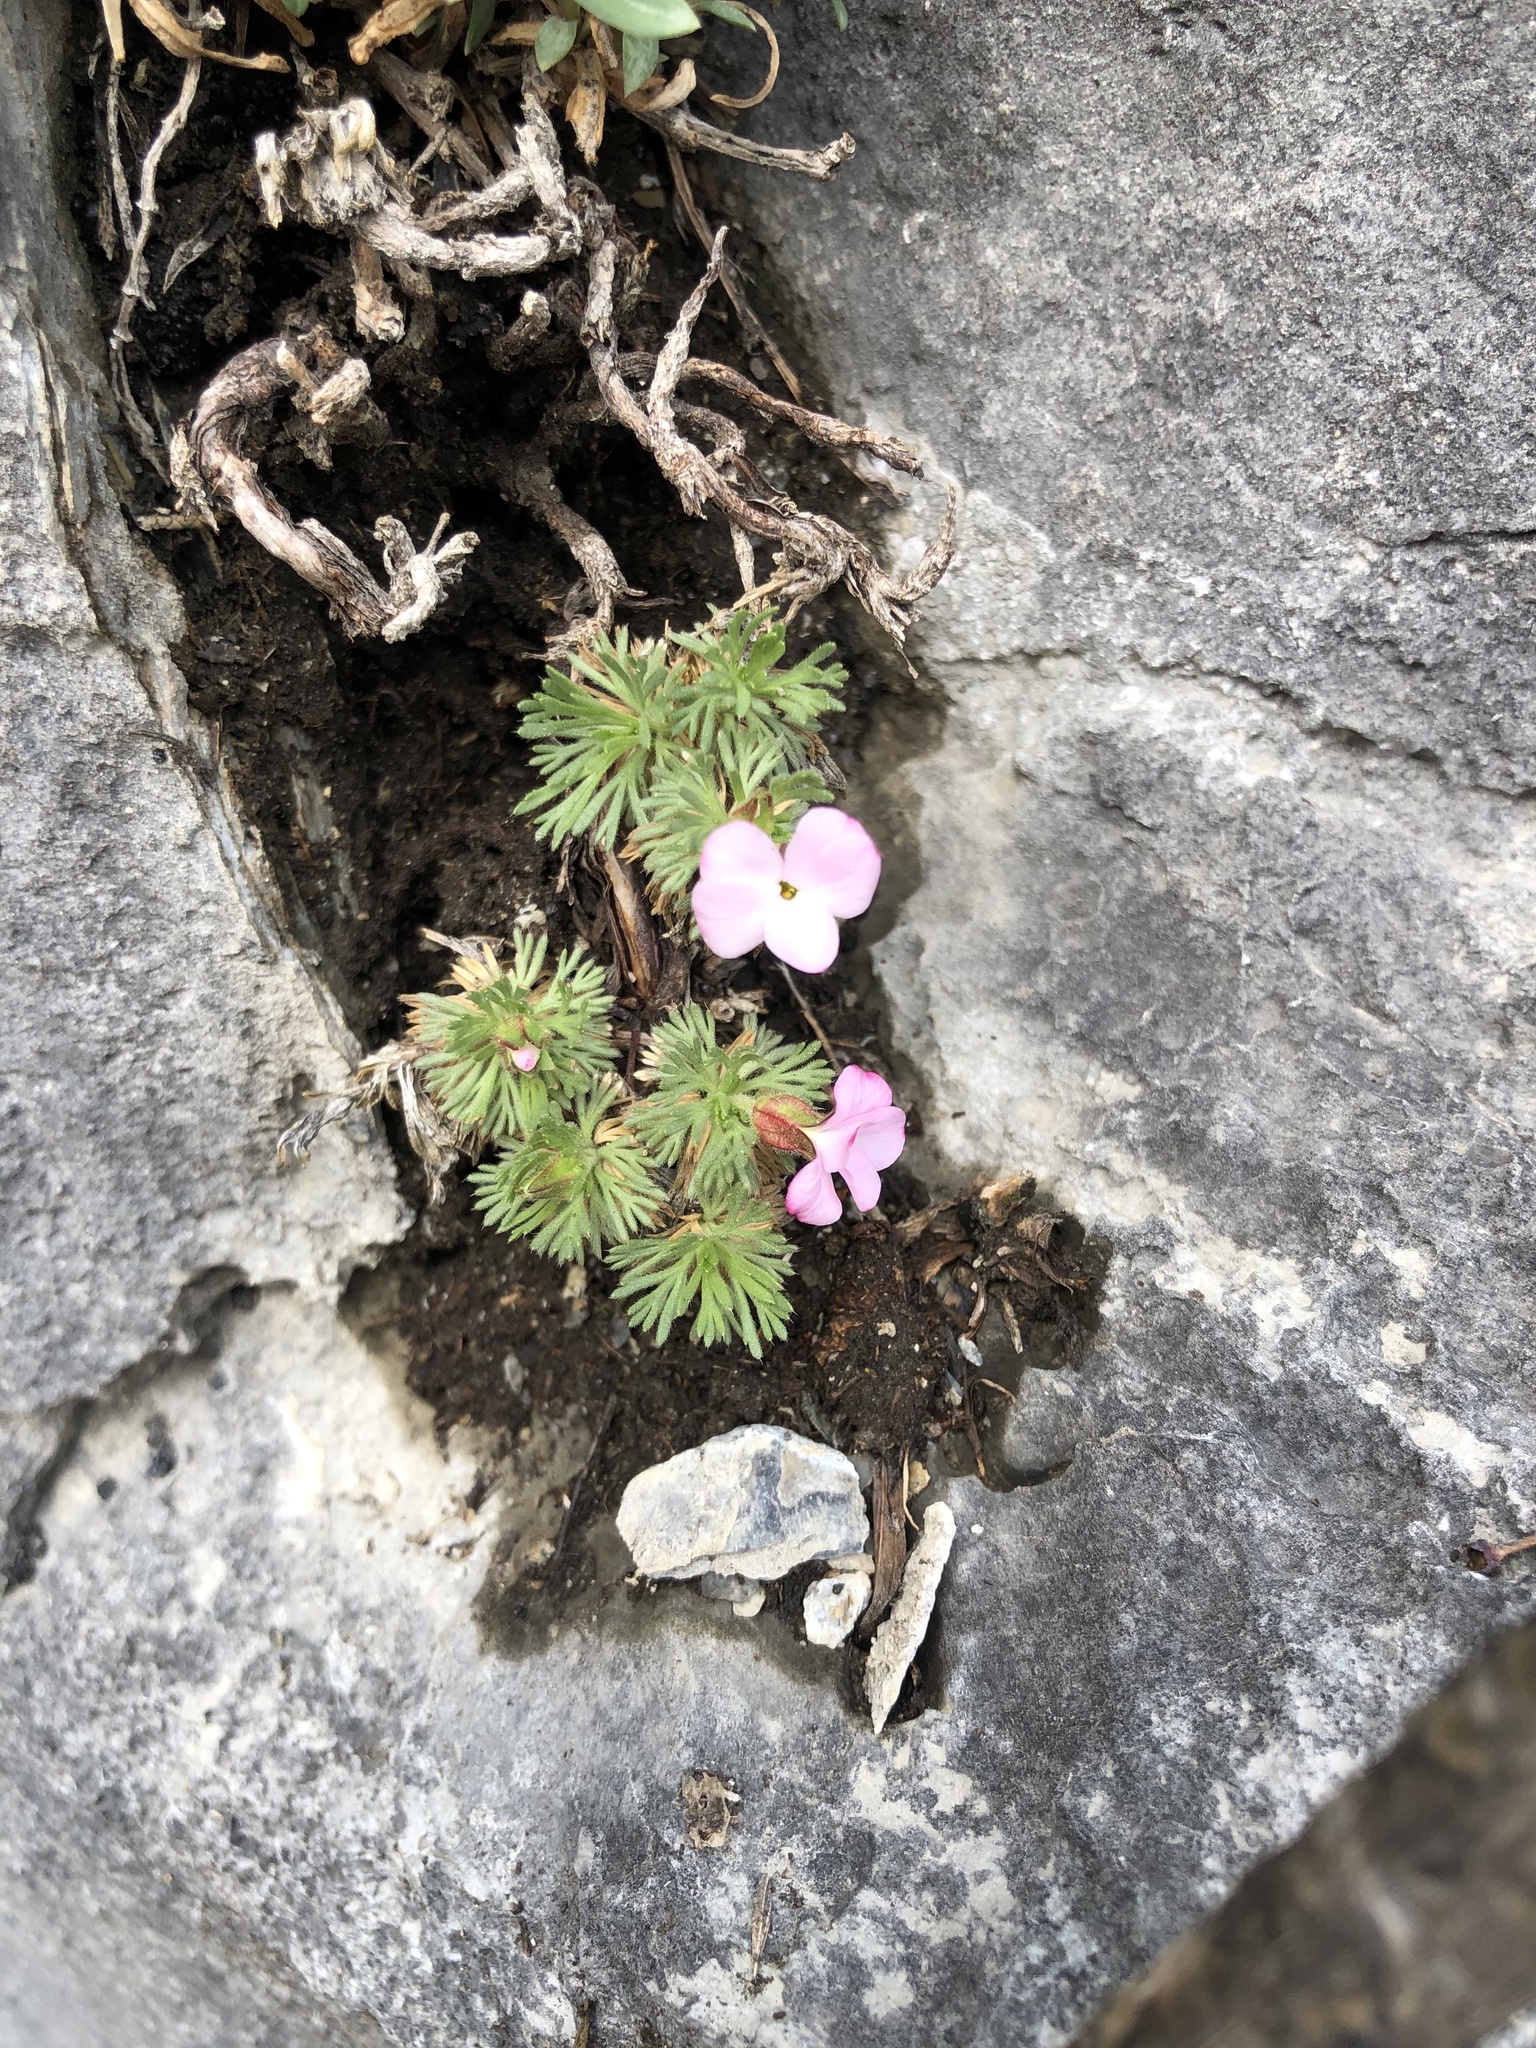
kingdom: Plantae
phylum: Tracheophyta
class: Magnoliopsida
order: Rosales
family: Rosaceae
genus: Chamaerhodos
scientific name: Chamaerhodos altaica
